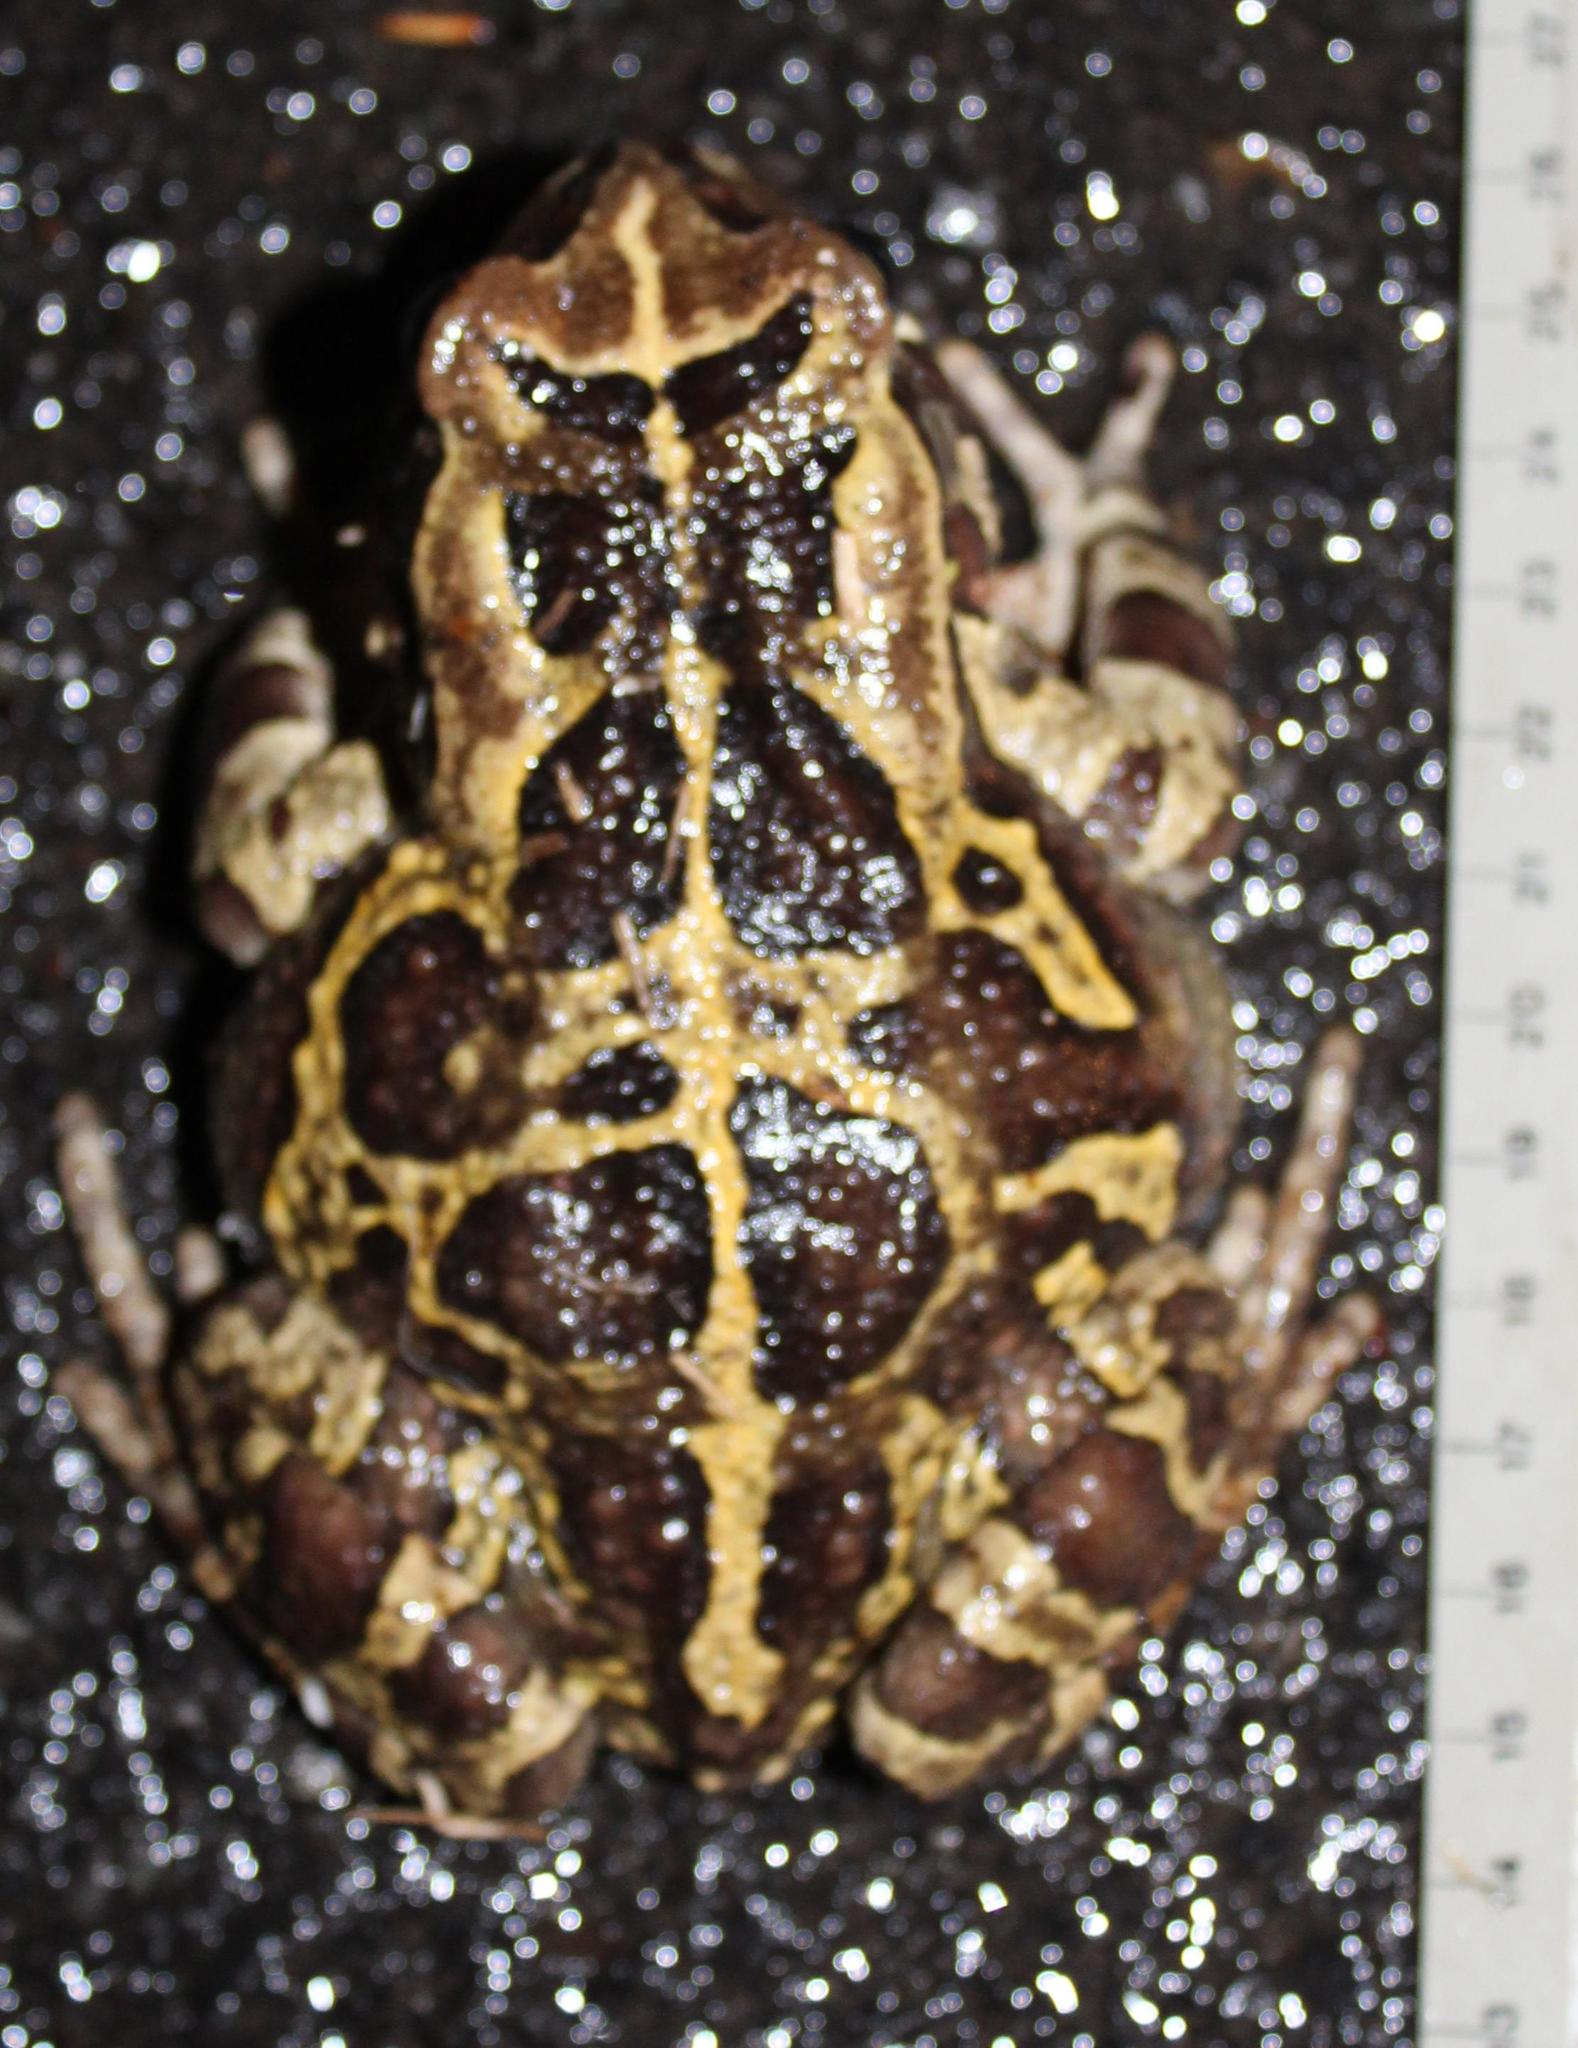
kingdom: Animalia
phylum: Chordata
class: Amphibia
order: Anura
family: Bufonidae
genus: Sclerophrys
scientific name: Sclerophrys pantherina
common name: Panther toad
